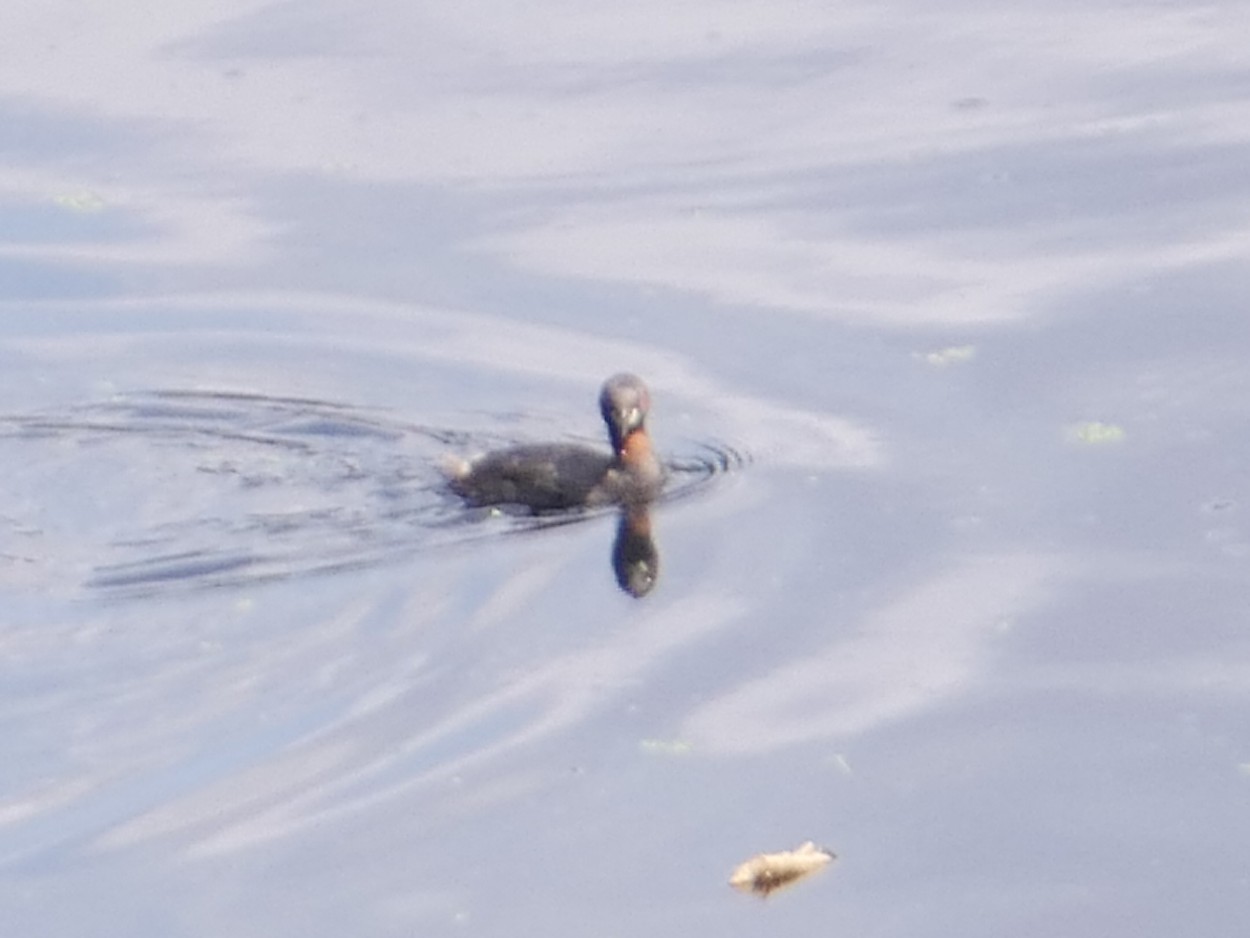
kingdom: Animalia
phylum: Chordata
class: Aves
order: Podicipediformes
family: Podicipedidae
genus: Tachybaptus
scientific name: Tachybaptus ruficollis
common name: Little grebe
